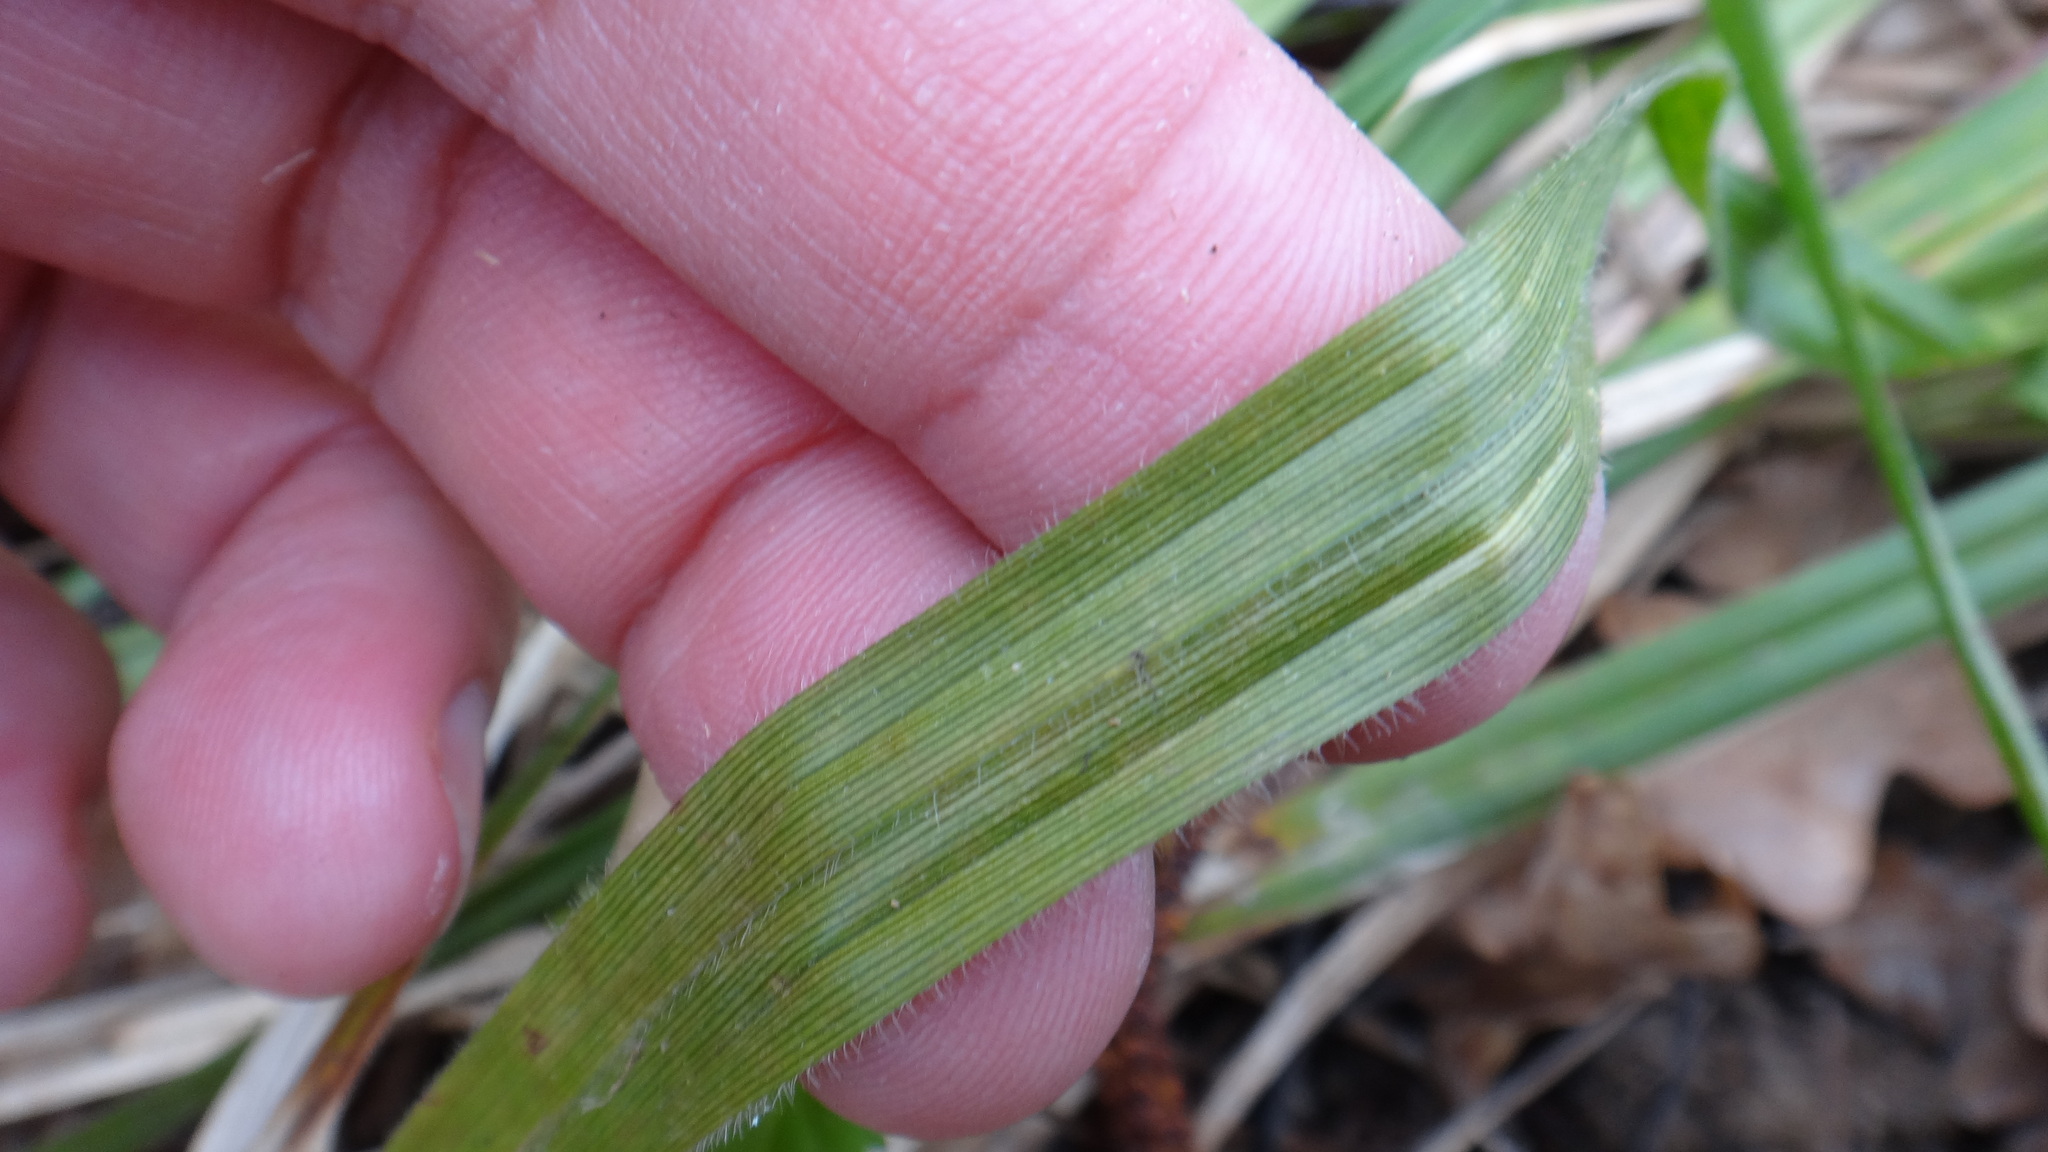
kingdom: Plantae
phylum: Tracheophyta
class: Liliopsida
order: Poales
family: Cyperaceae
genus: Carex
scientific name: Carex pilosa
